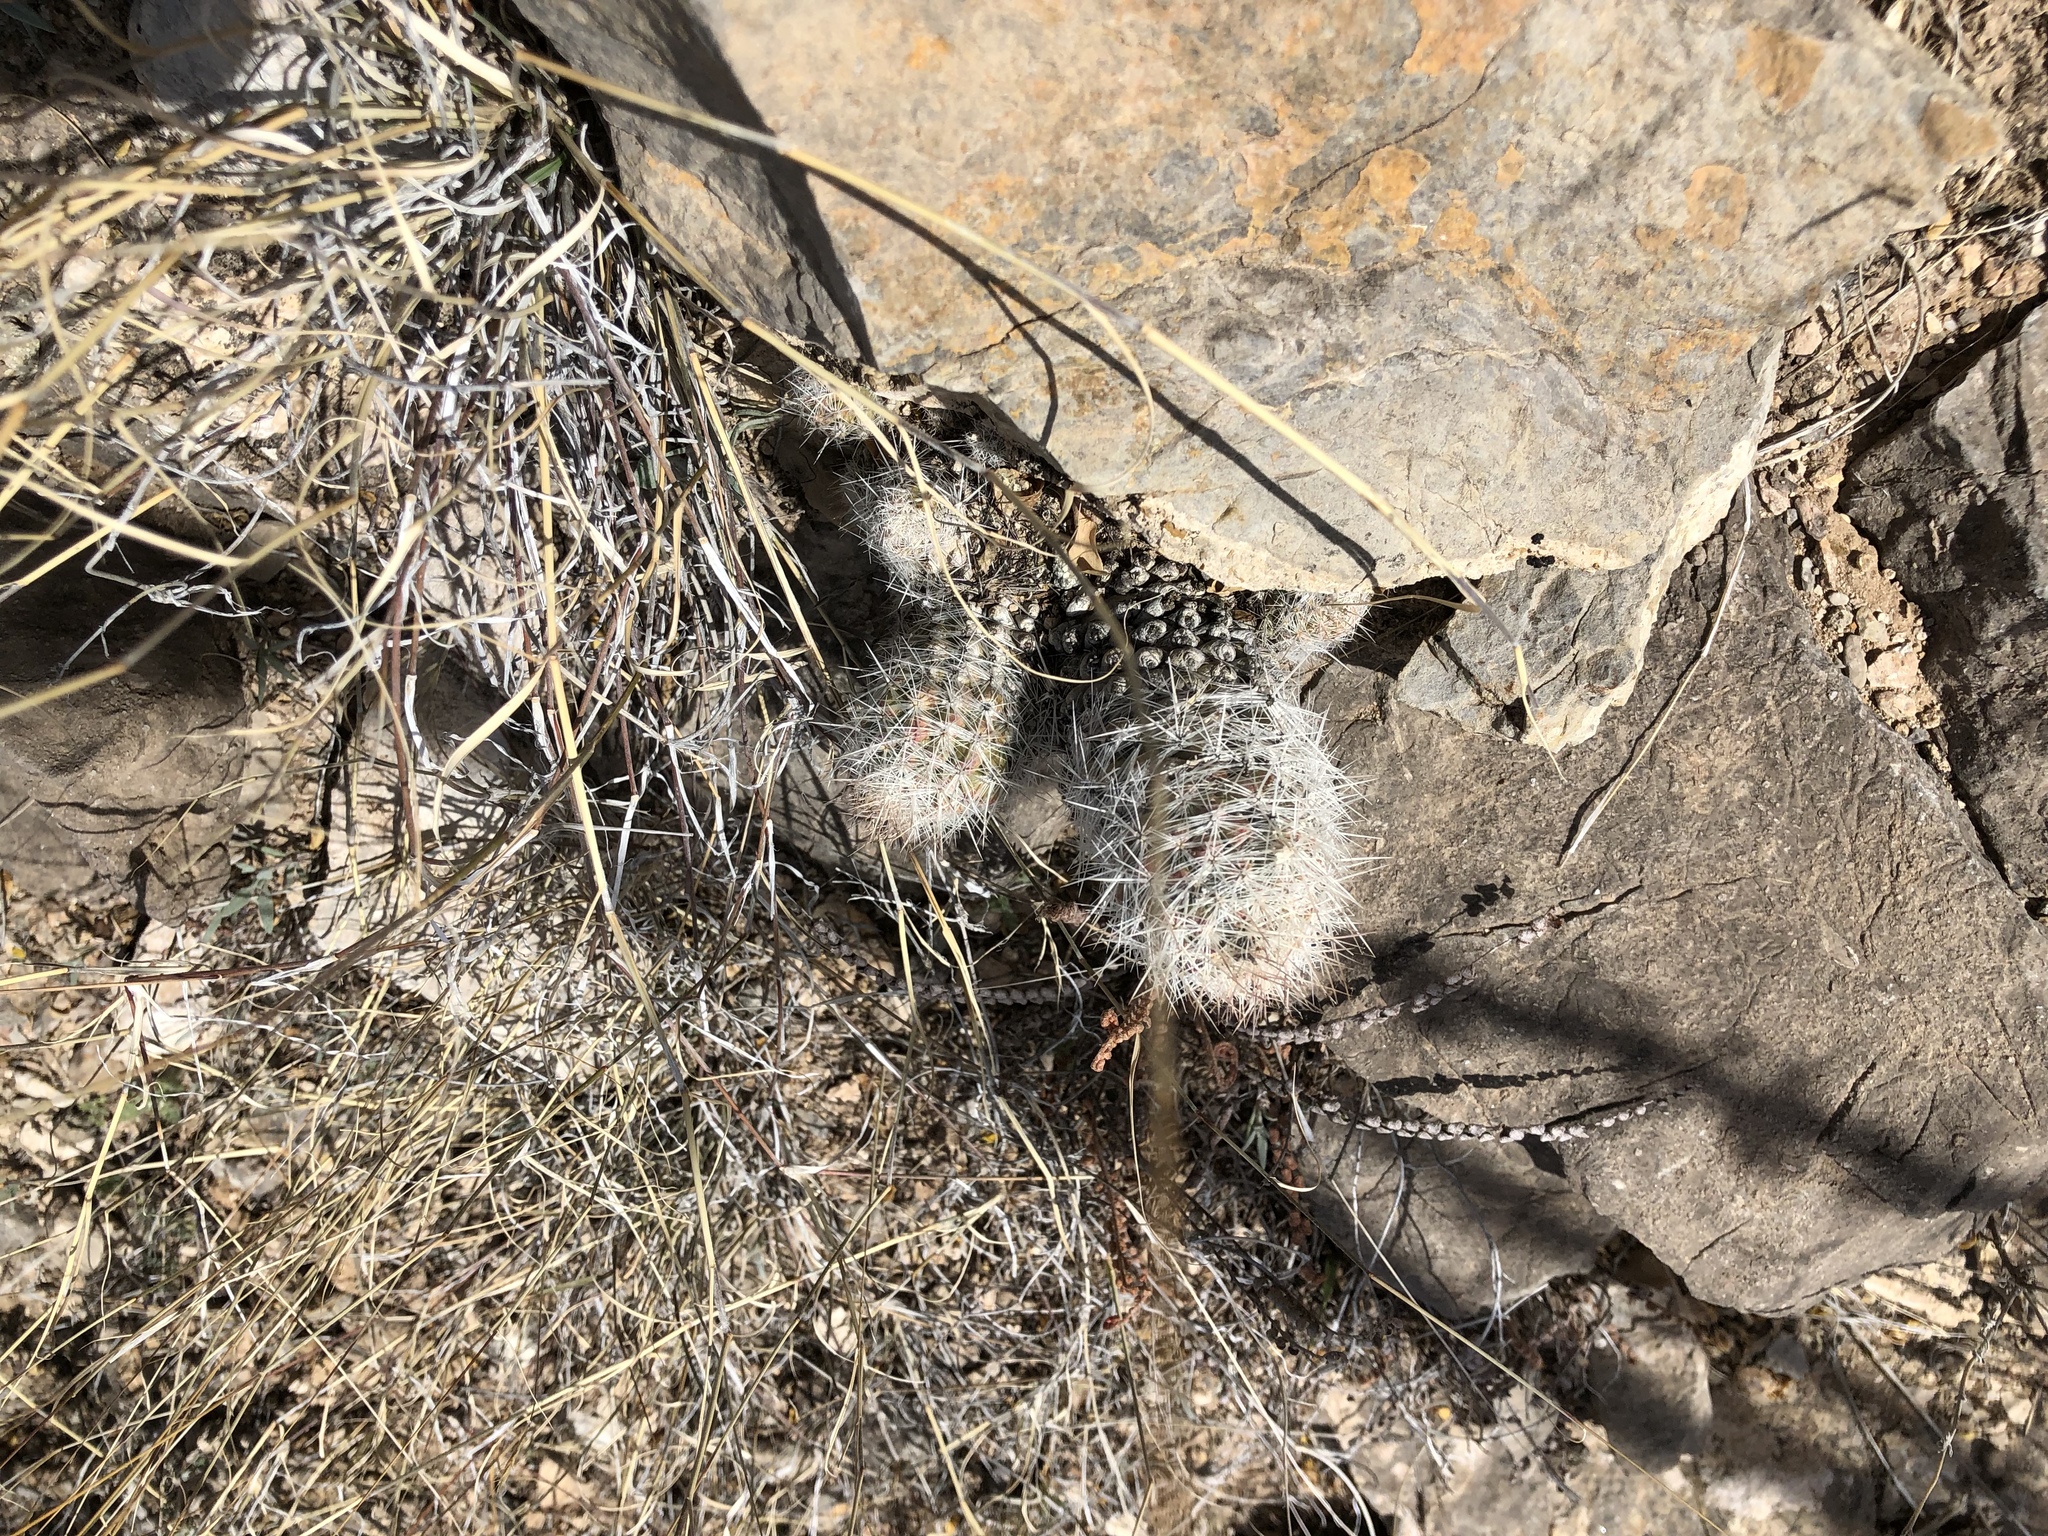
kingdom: Plantae
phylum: Tracheophyta
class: Magnoliopsida
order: Caryophyllales
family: Cactaceae
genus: Pelecyphora
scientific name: Pelecyphora tuberculosa
